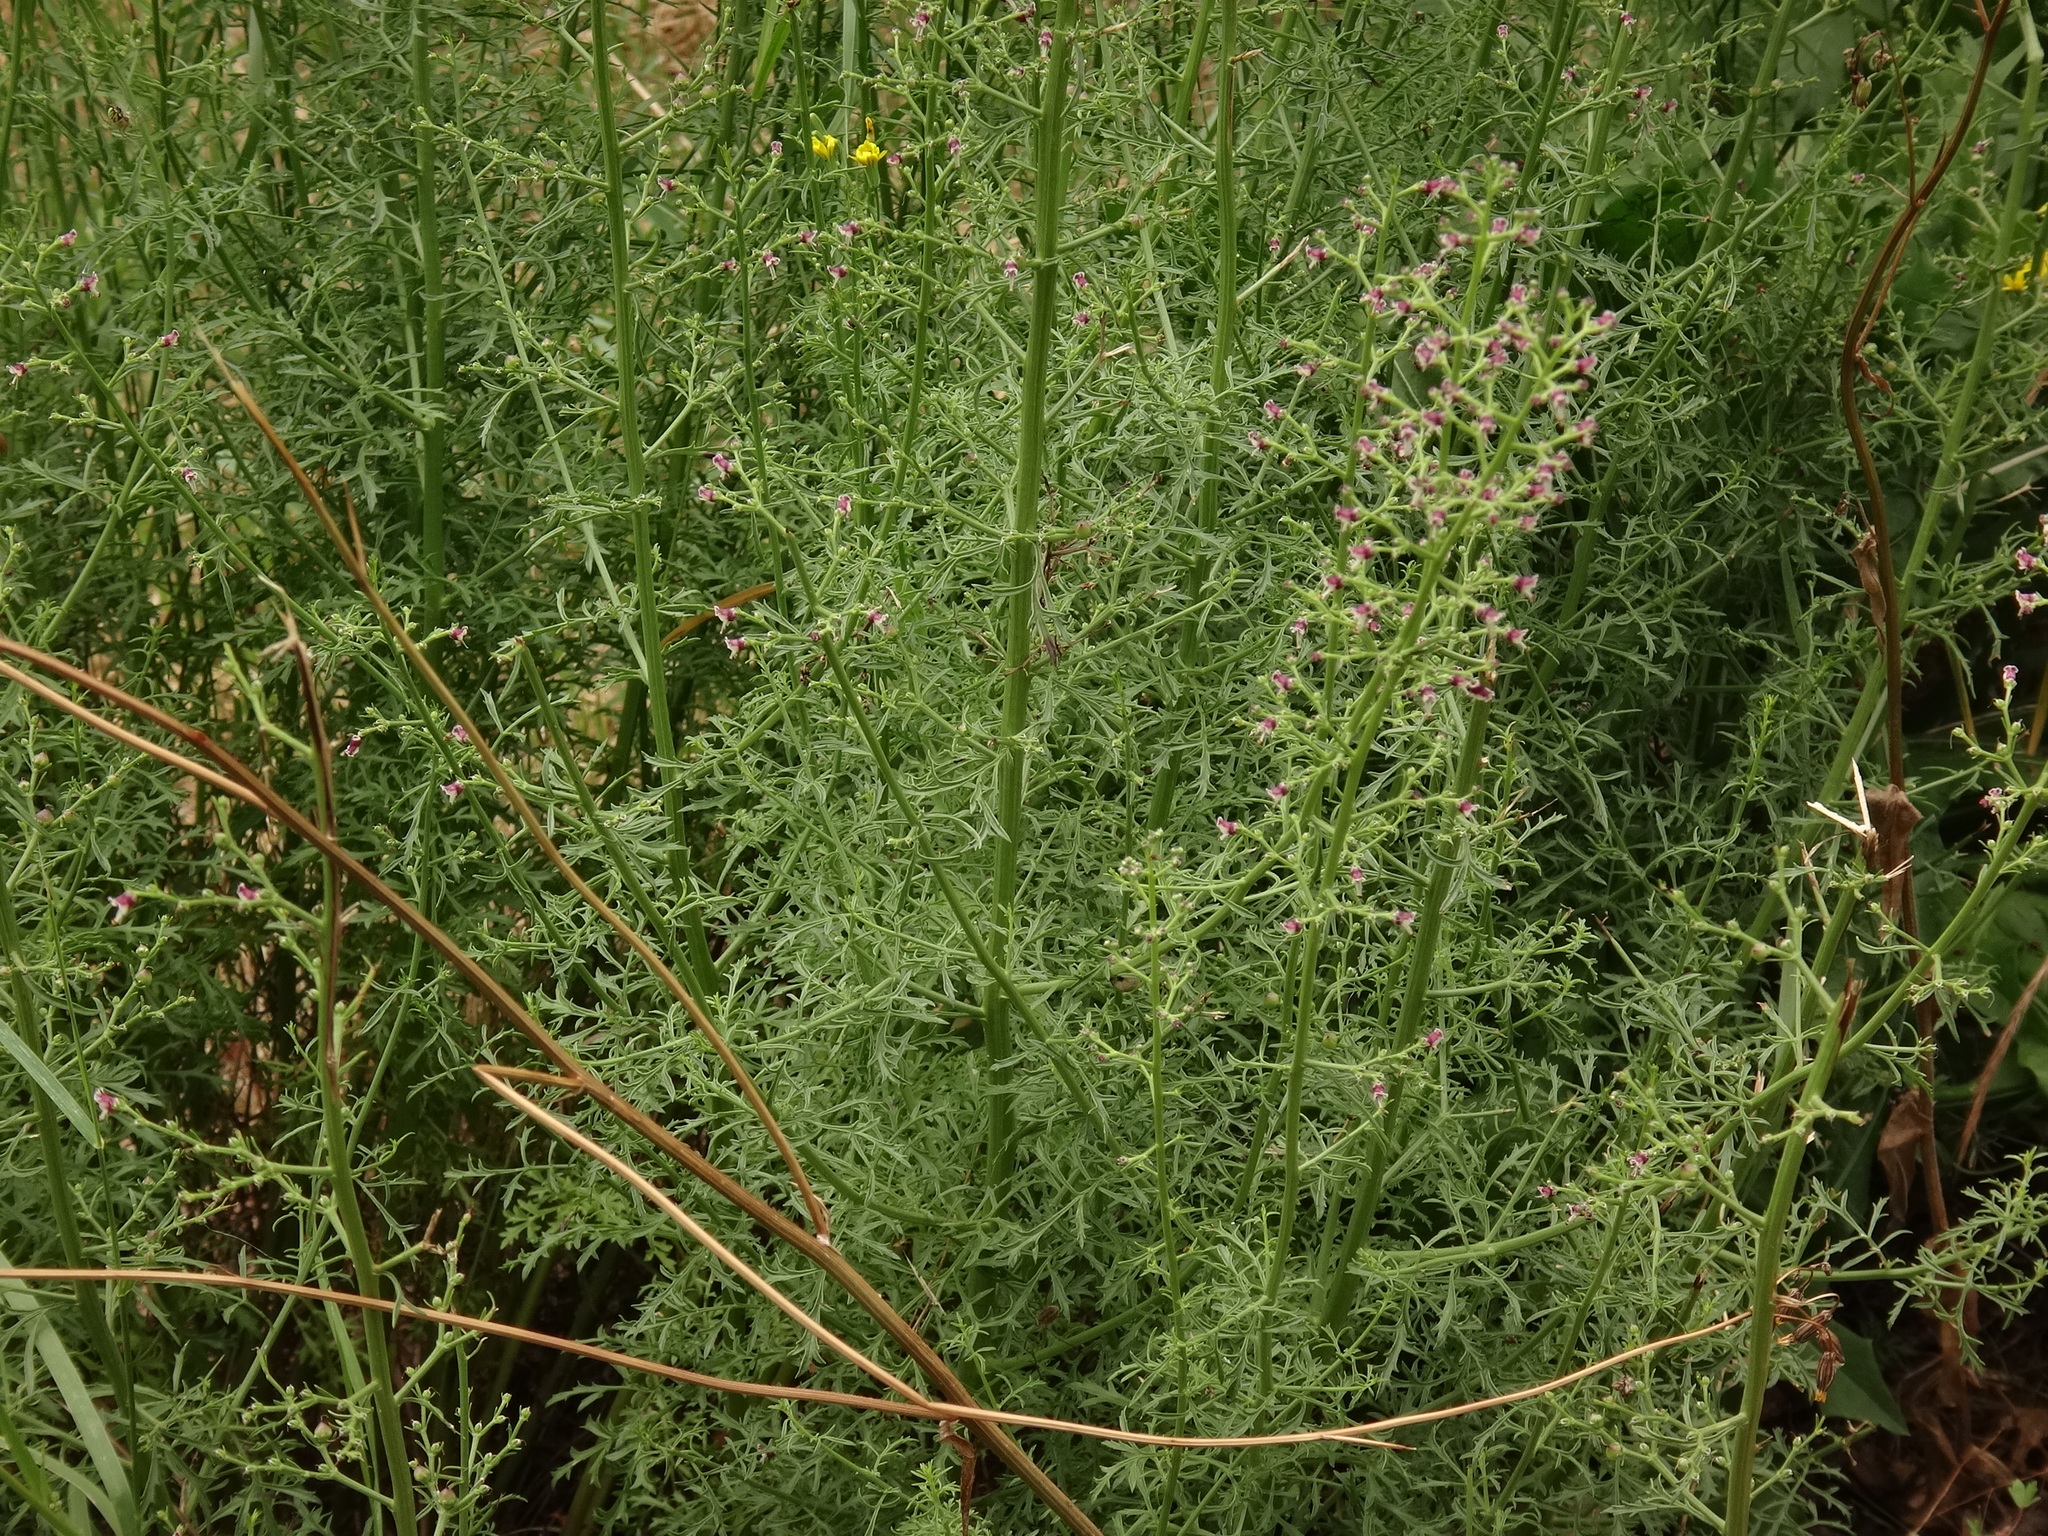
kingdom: Plantae
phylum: Tracheophyta
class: Magnoliopsida
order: Lamiales
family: Scrophulariaceae
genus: Scrophularia
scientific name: Scrophularia canina
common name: French figwort
